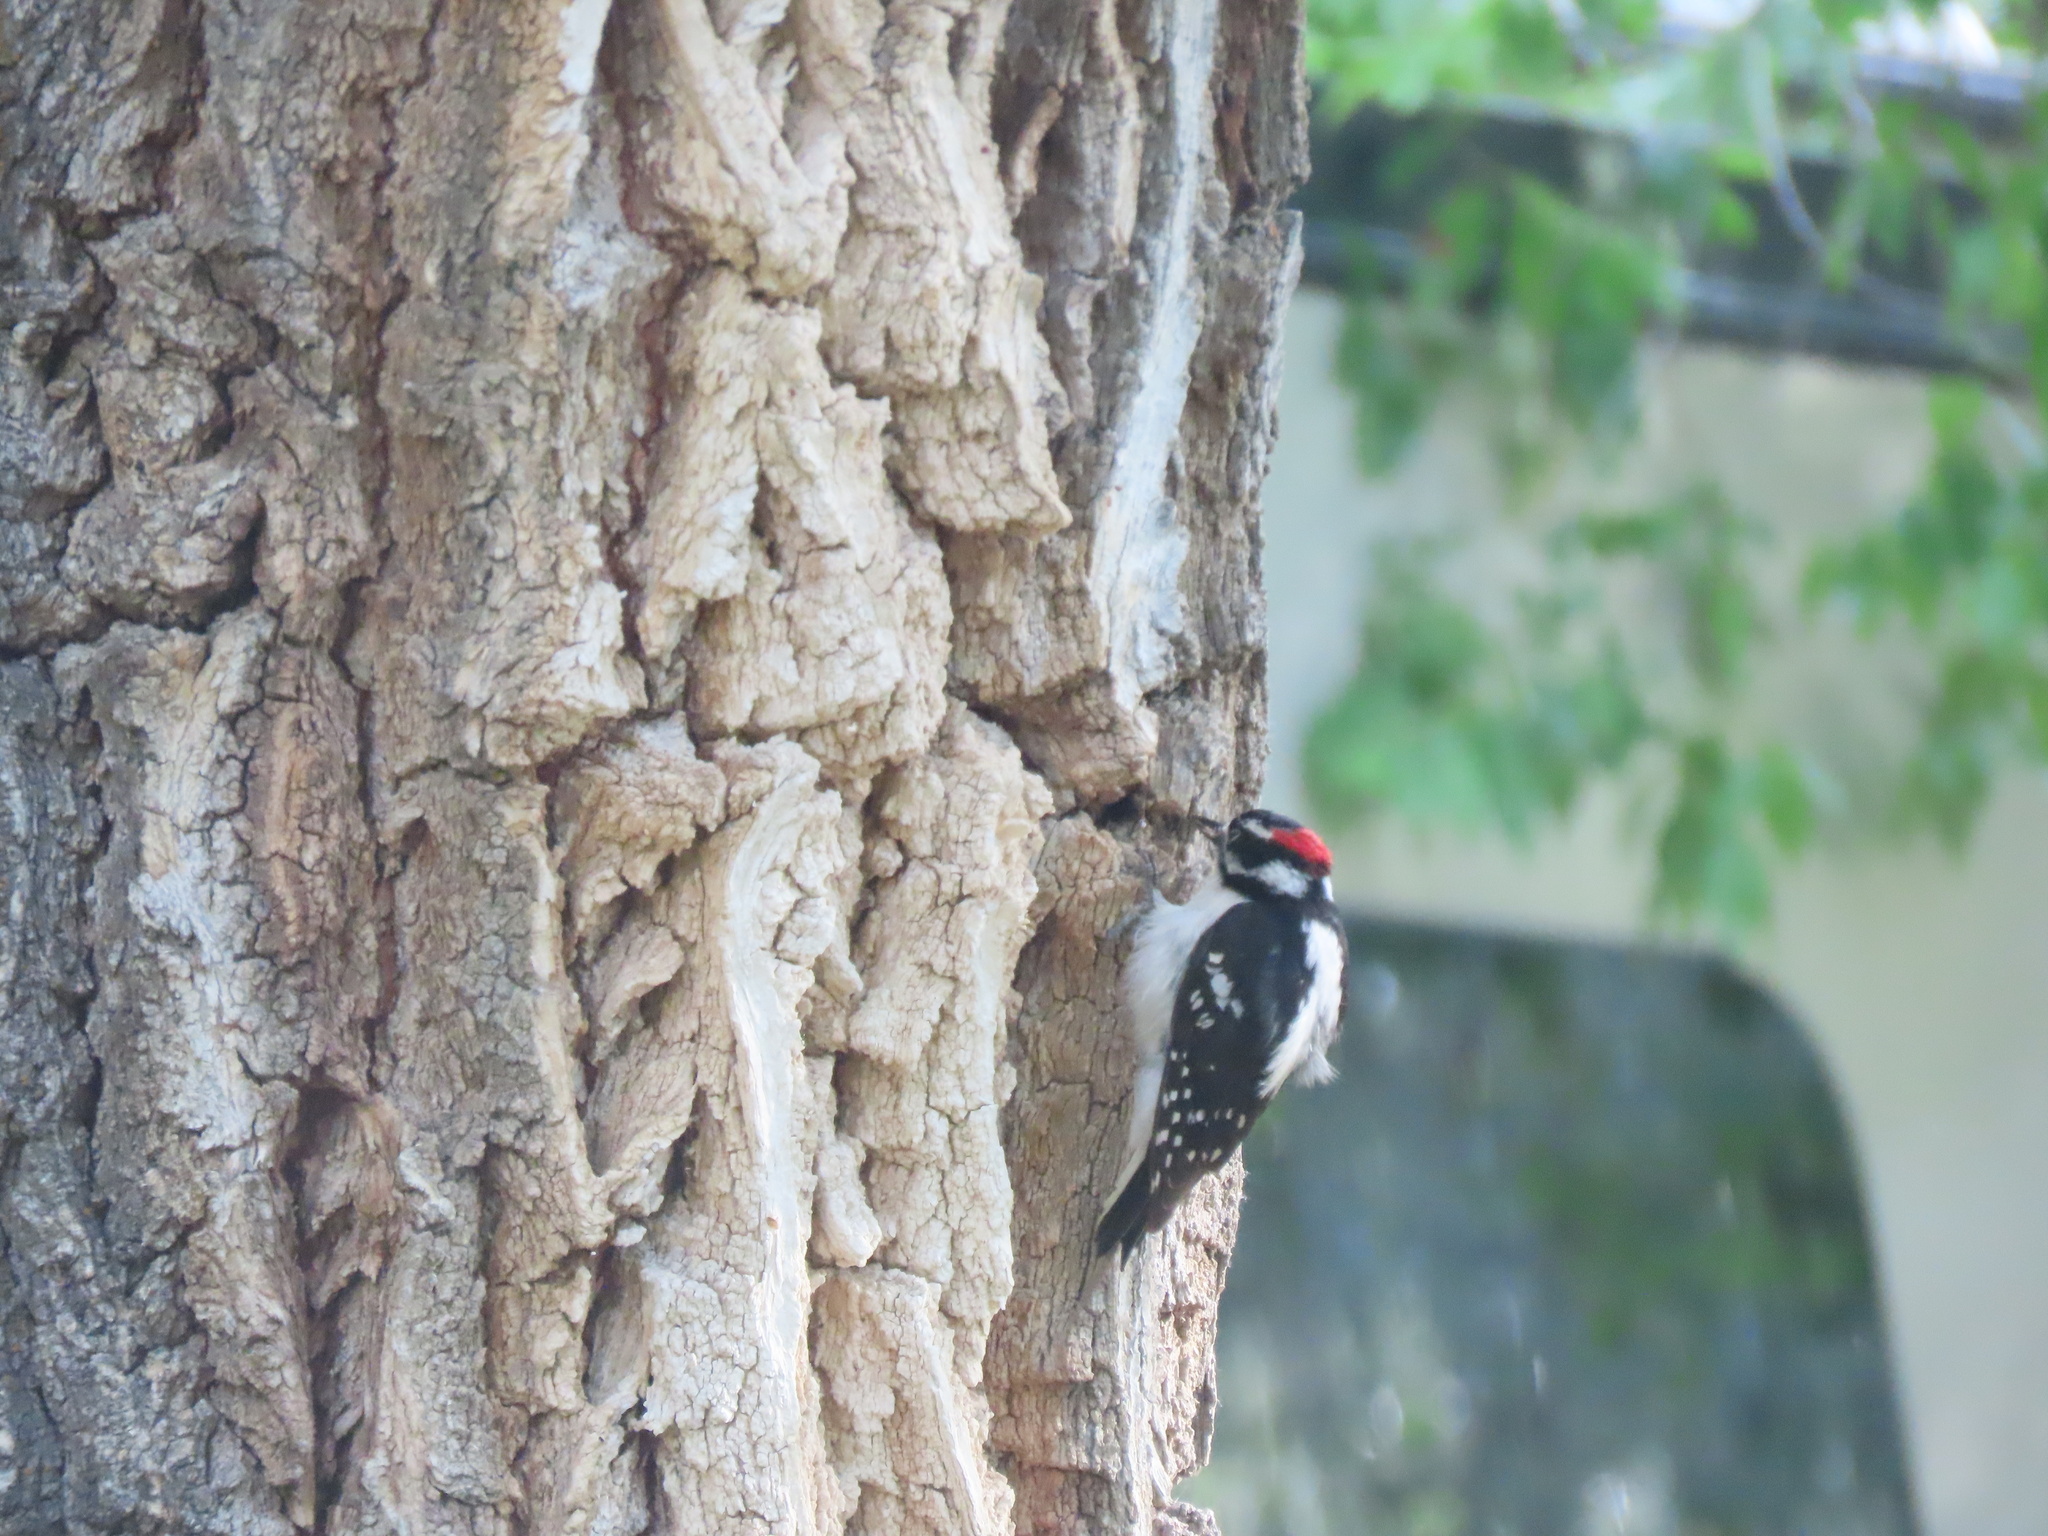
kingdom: Animalia
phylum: Chordata
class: Aves
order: Piciformes
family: Picidae
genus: Dryobates
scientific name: Dryobates pubescens
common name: Downy woodpecker
